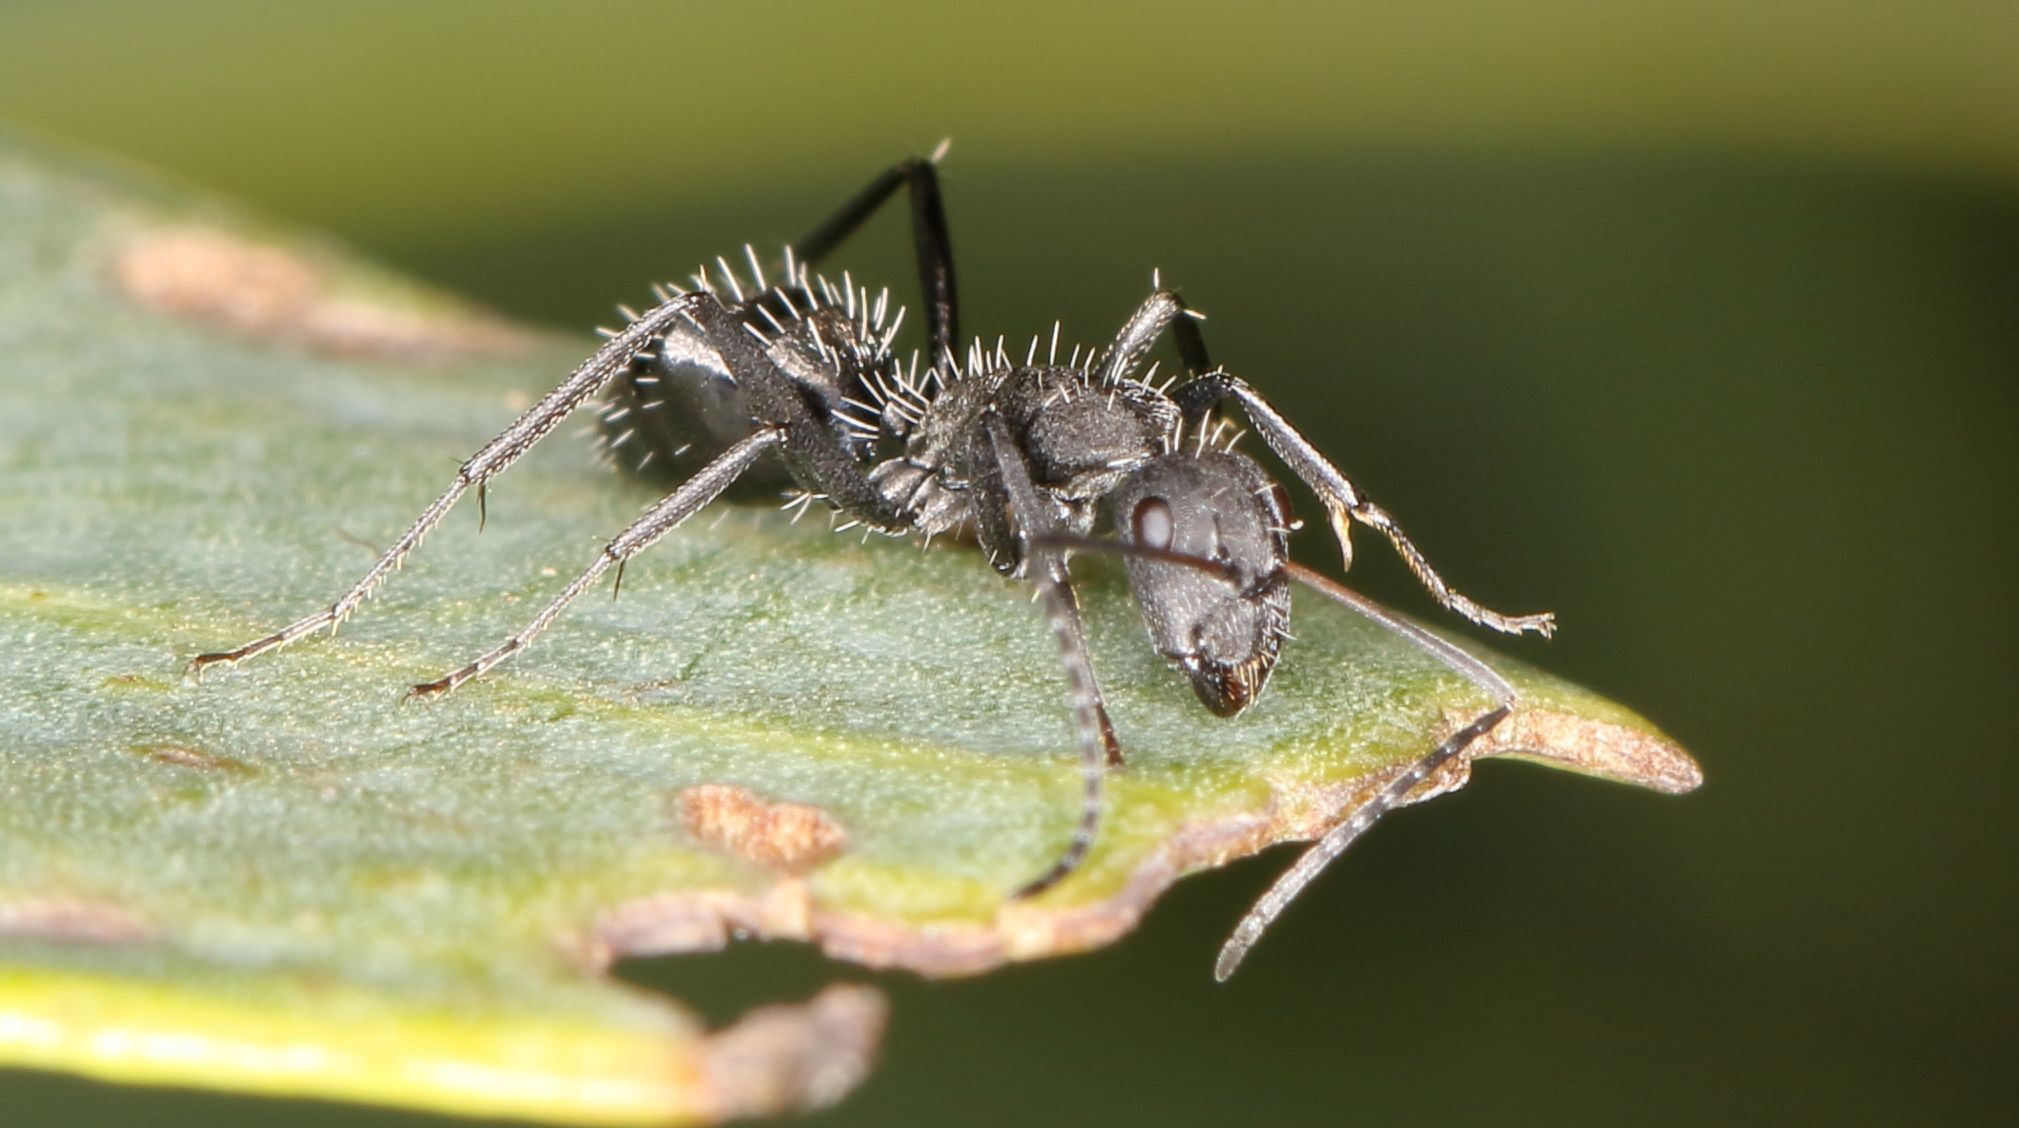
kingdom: Animalia
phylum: Arthropoda
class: Insecta
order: Hymenoptera
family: Formicidae
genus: Camponotus
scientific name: Camponotus niveosetosus
